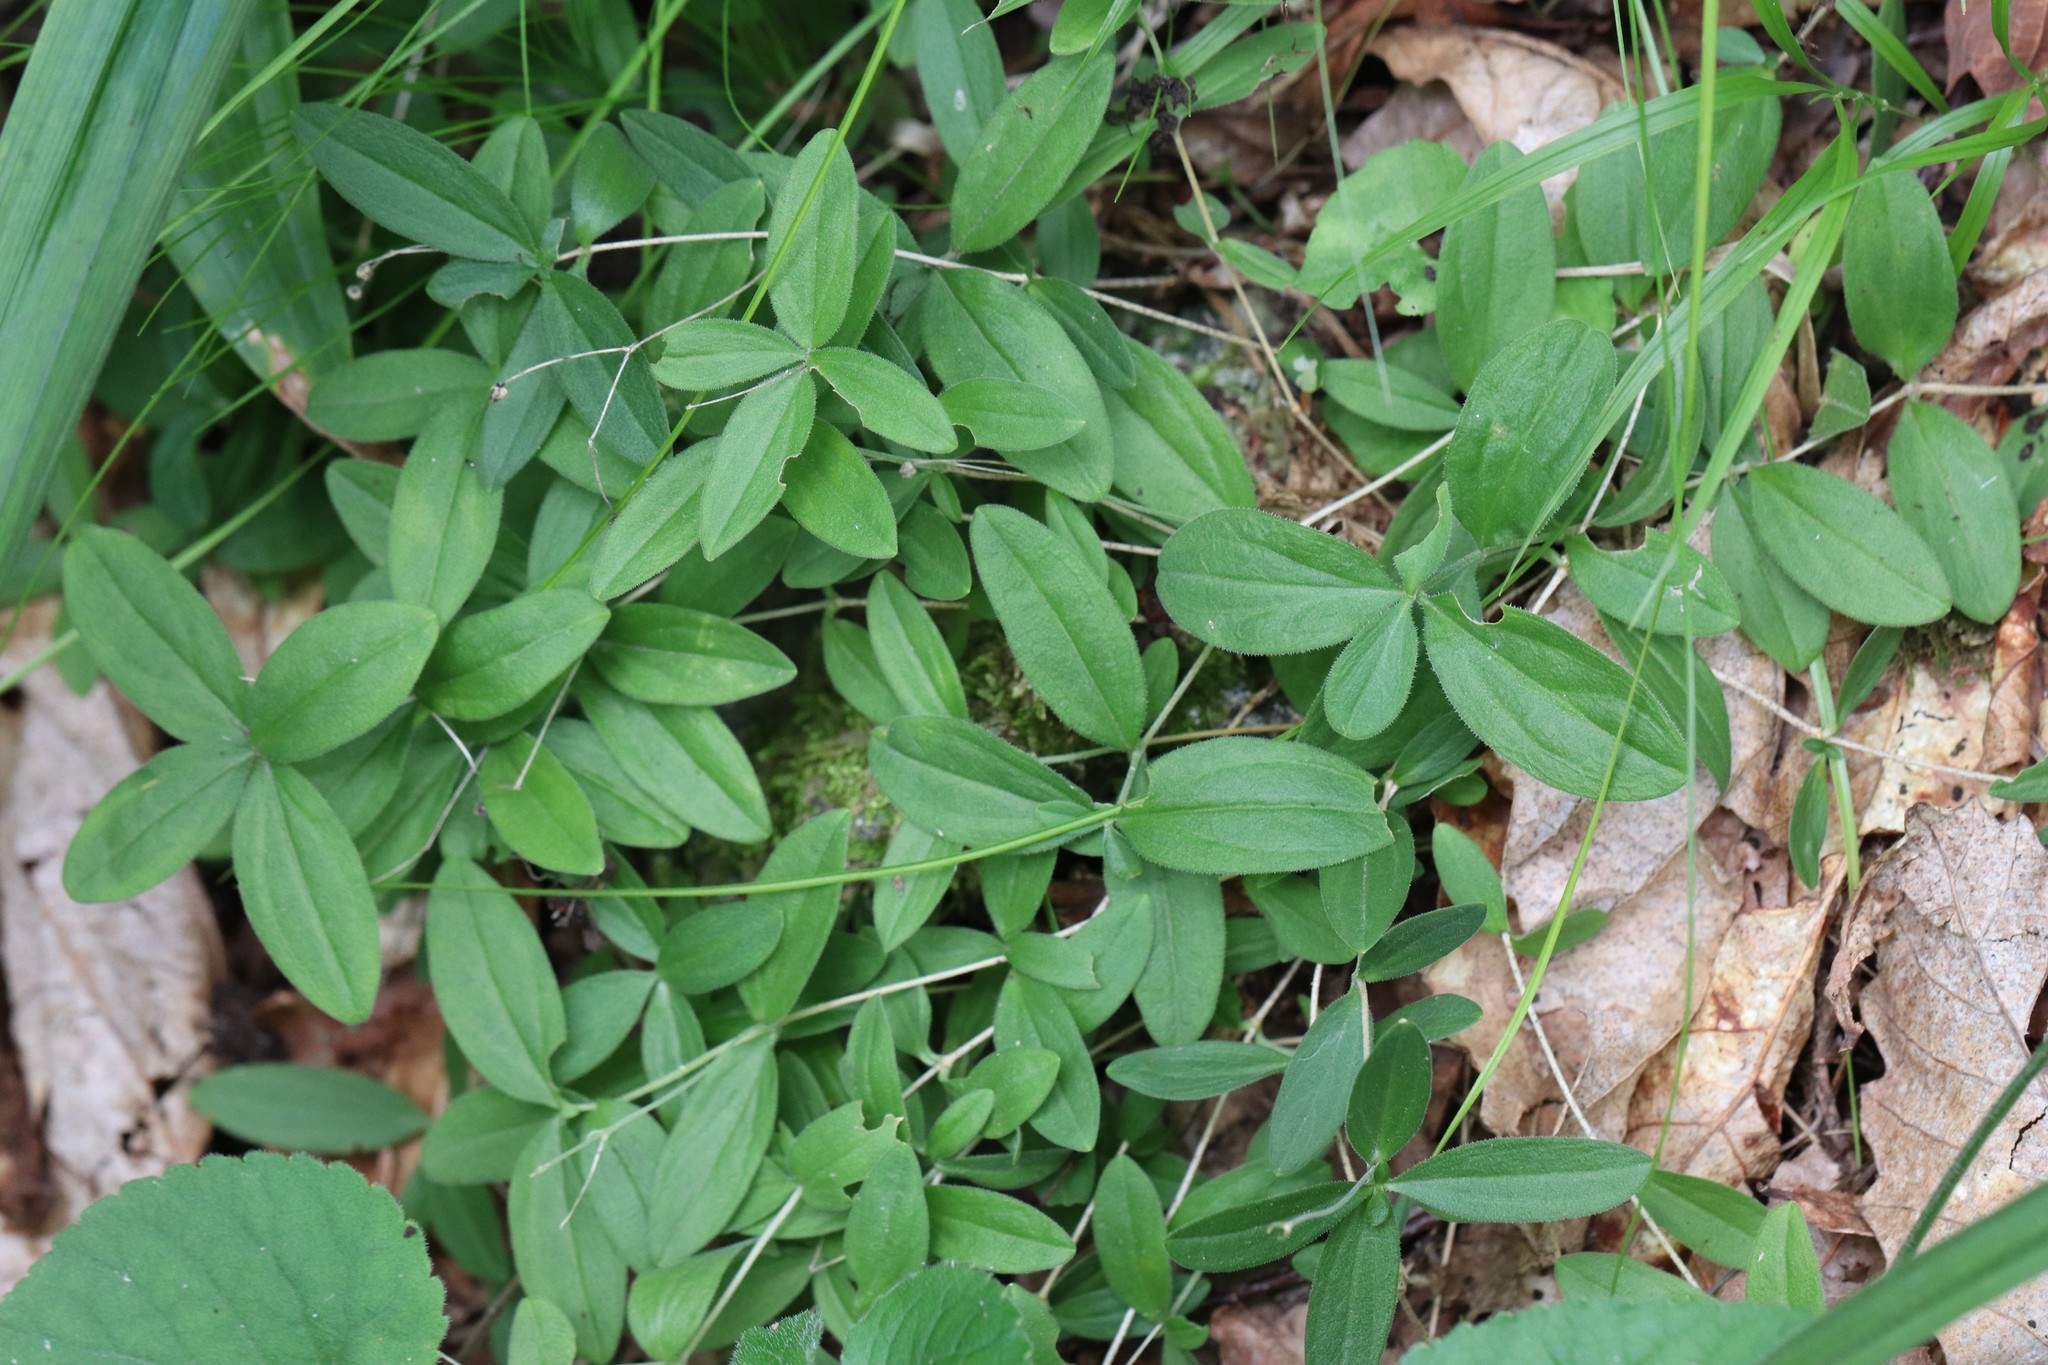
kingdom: Plantae
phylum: Tracheophyta
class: Magnoliopsida
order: Caryophyllales
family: Caryophyllaceae
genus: Moehringia
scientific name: Moehringia lateriflora
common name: Blunt-leaved sandwort
